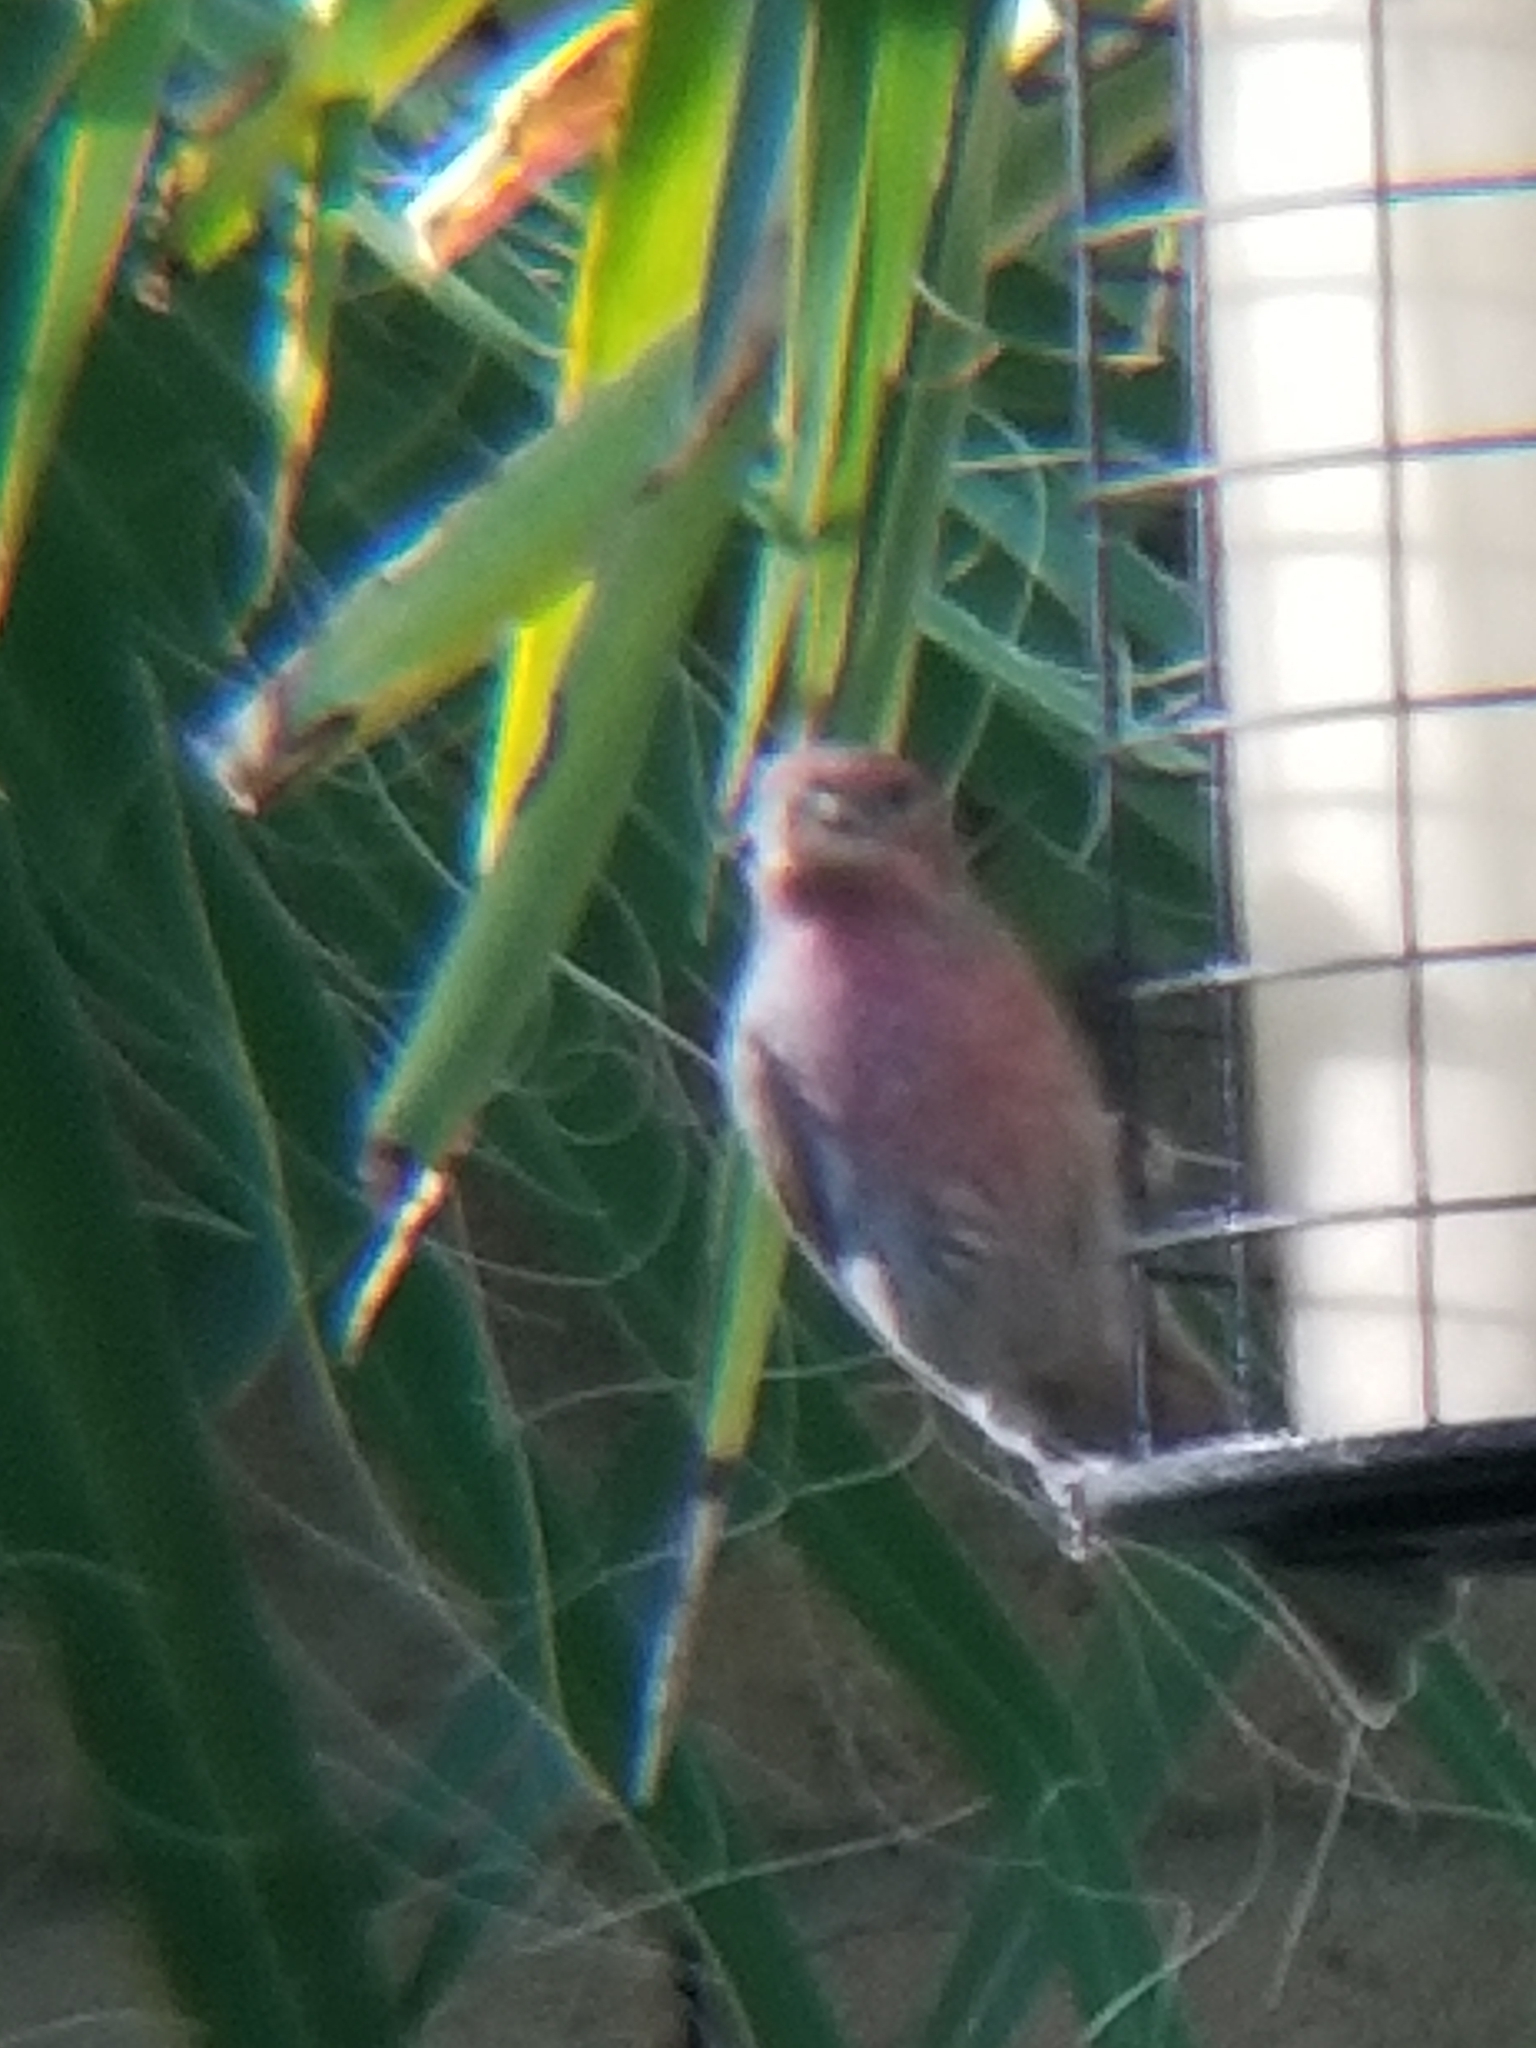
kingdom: Animalia
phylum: Chordata
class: Aves
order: Passeriformes
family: Fringillidae
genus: Haemorhous
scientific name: Haemorhous mexicanus
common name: House finch
